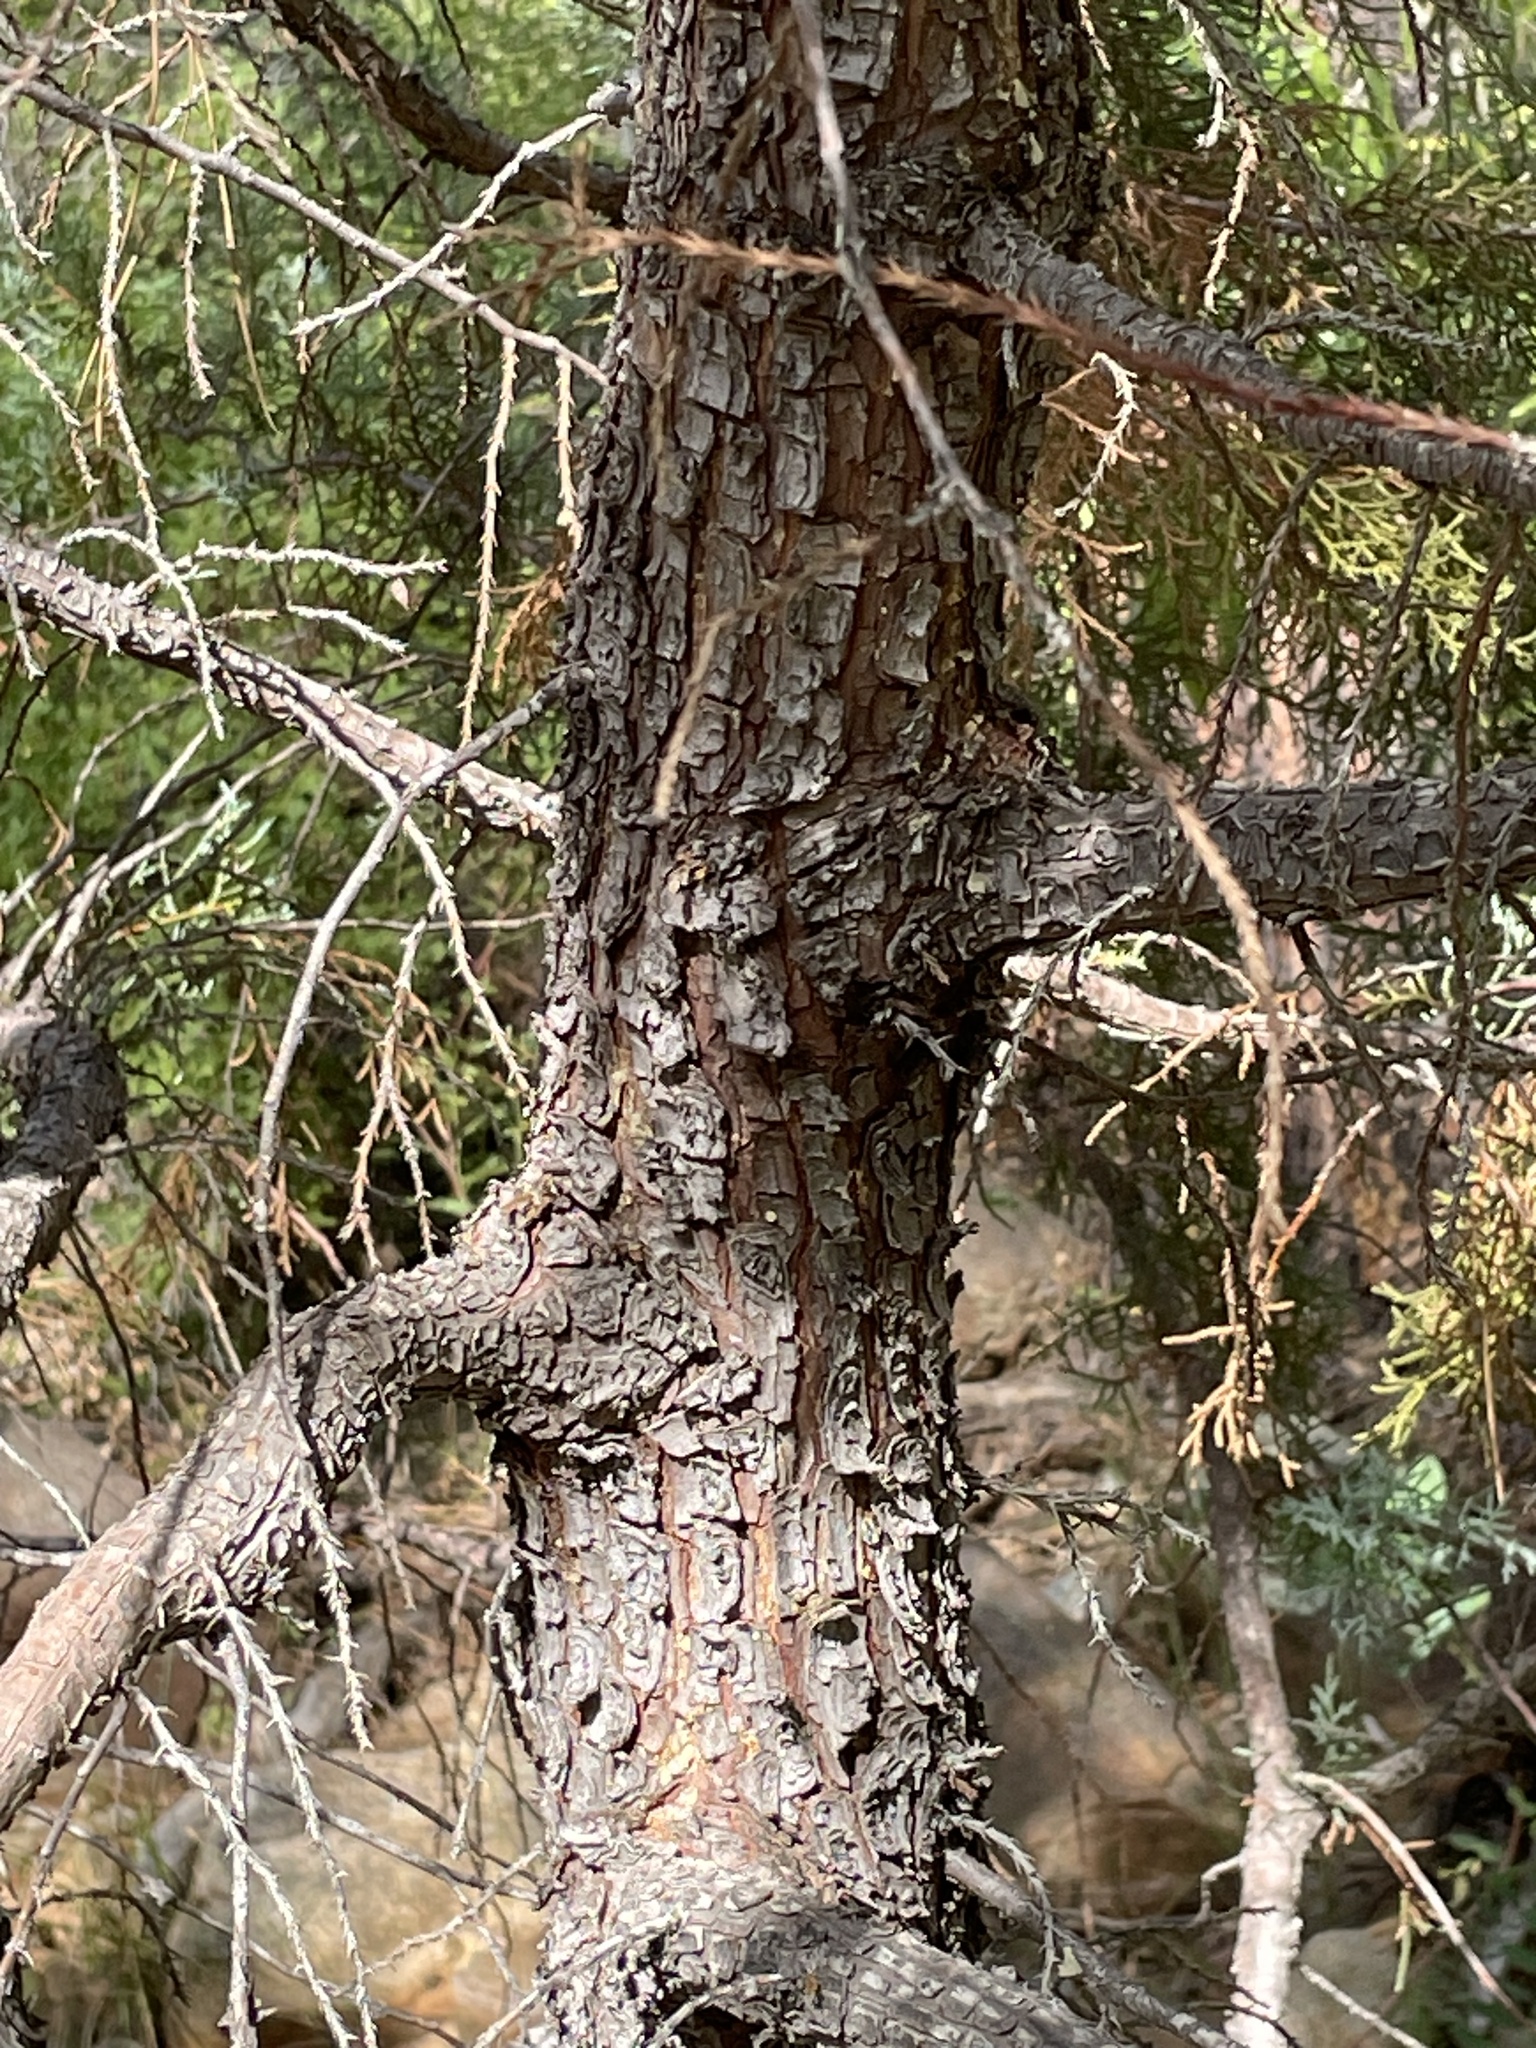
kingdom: Plantae
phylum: Tracheophyta
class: Pinopsida
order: Pinales
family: Cupressaceae
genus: Juniperus
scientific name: Juniperus deppeana
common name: Alligator juniper
